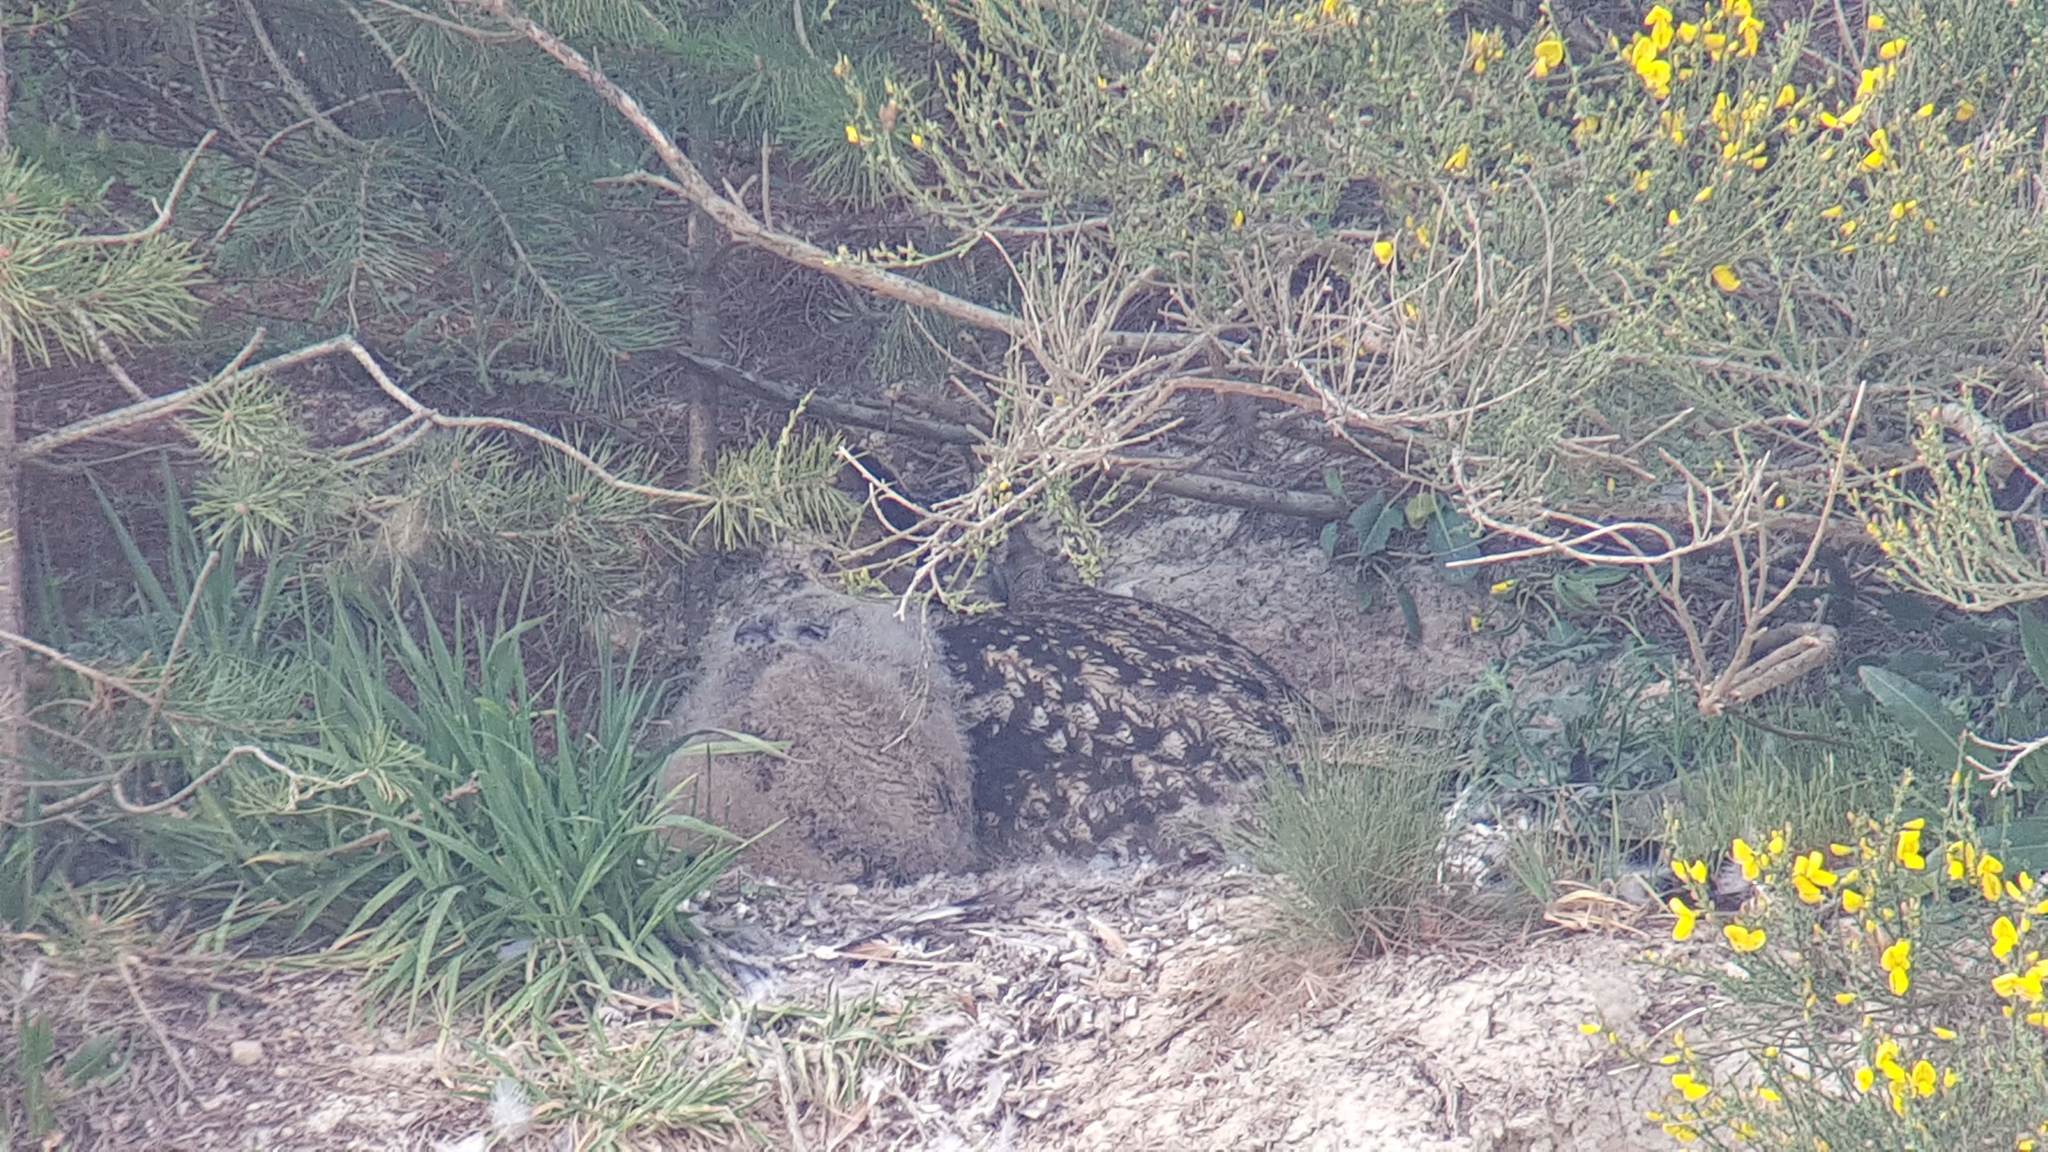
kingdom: Animalia
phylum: Chordata
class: Aves
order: Strigiformes
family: Strigidae
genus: Bubo
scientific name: Bubo bubo
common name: Eurasian eagle-owl
